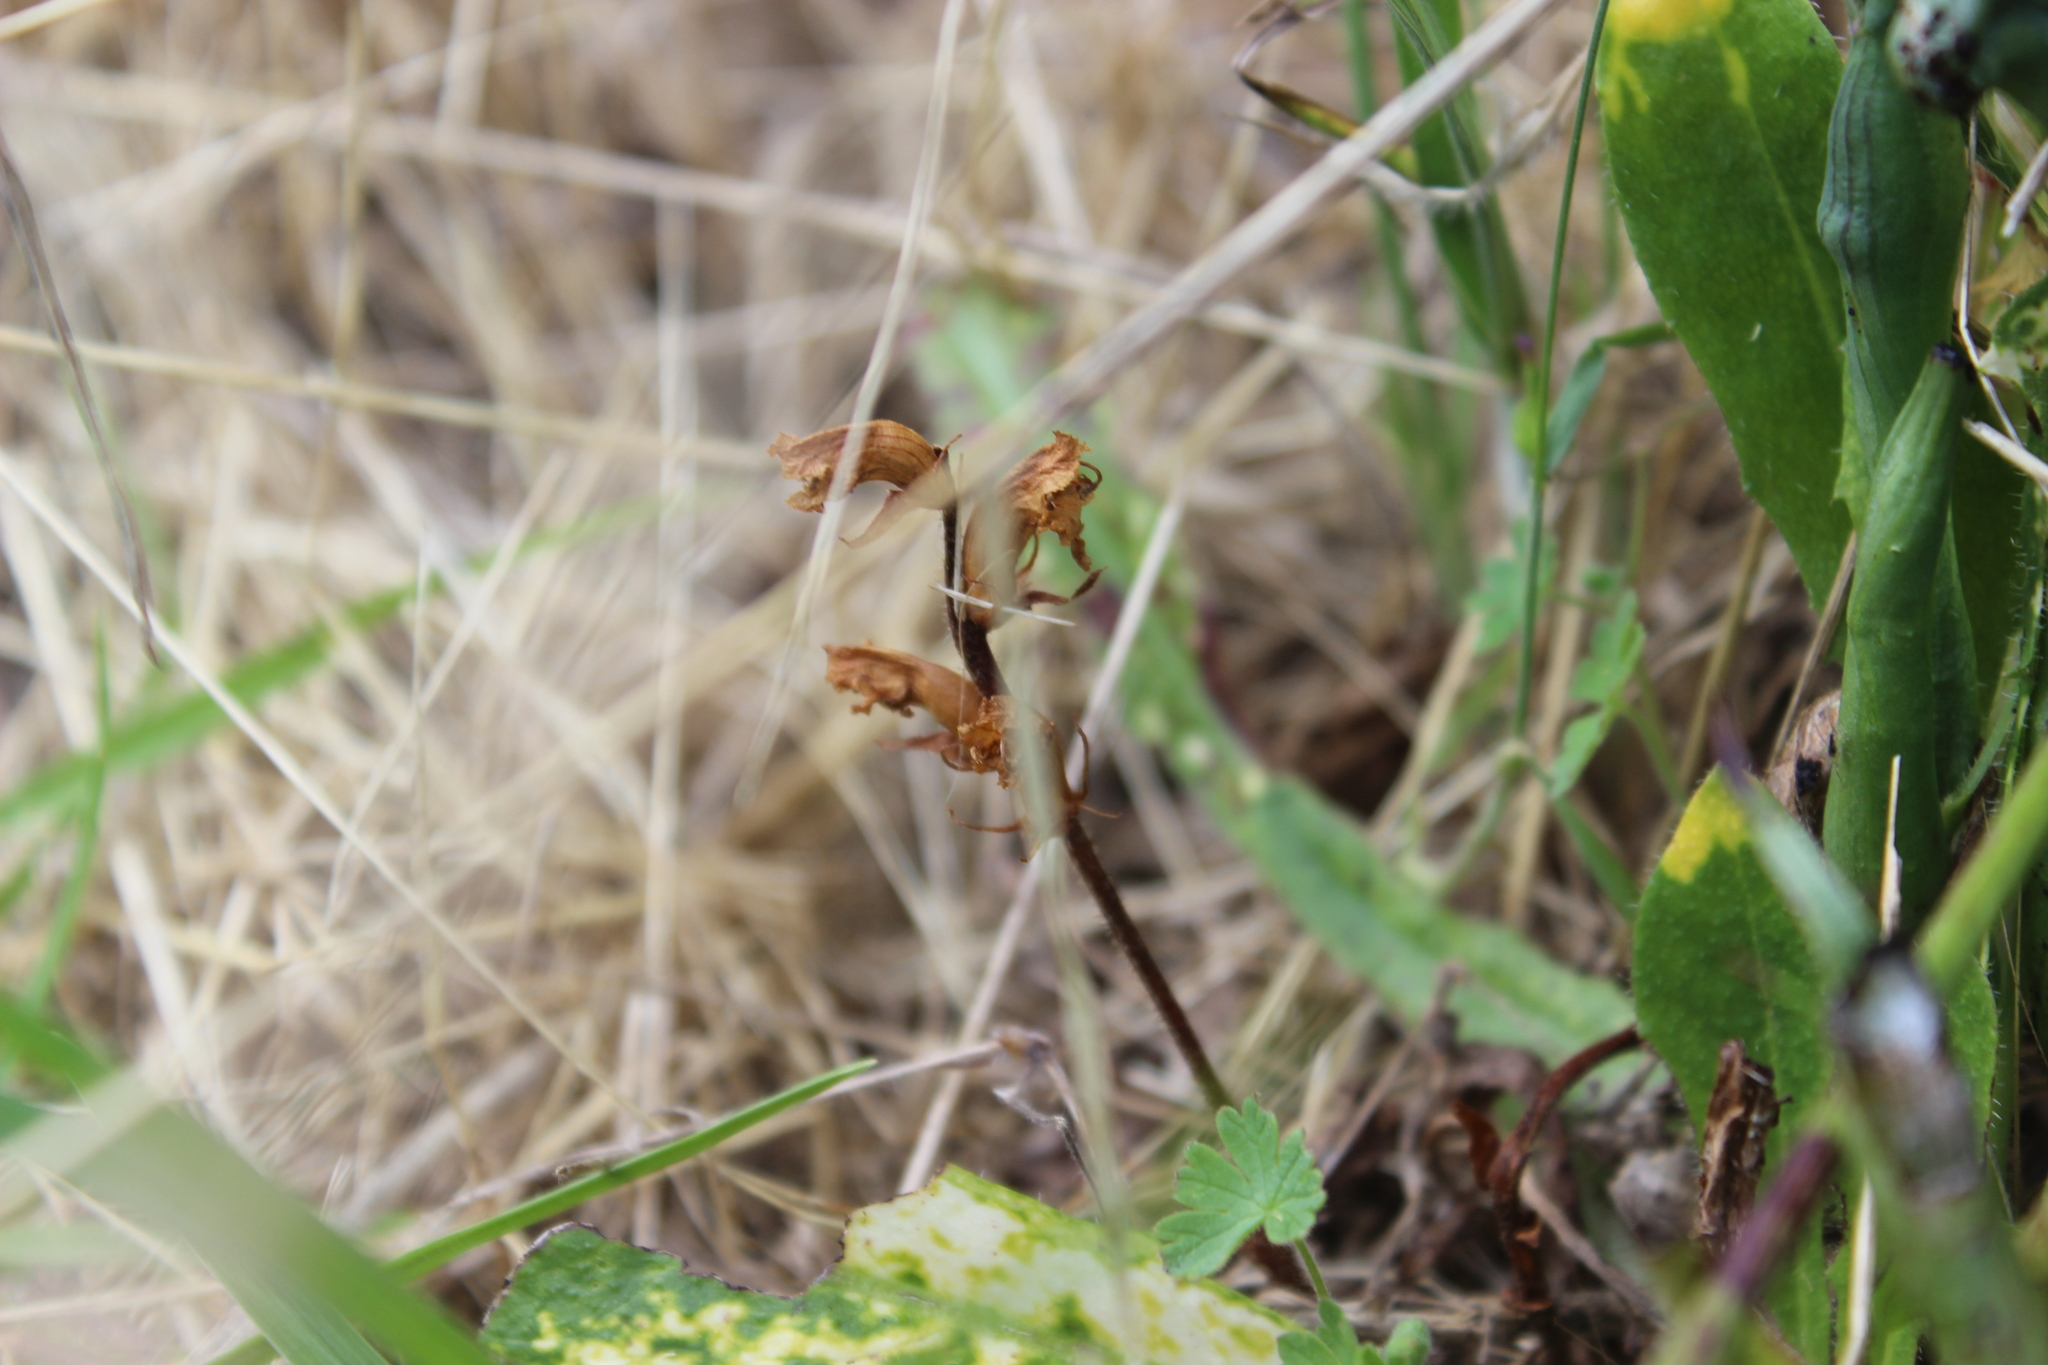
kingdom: Plantae
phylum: Tracheophyta
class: Magnoliopsida
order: Lamiales
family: Orobanchaceae
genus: Orobanche
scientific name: Orobanche minor
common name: Common broomrape
